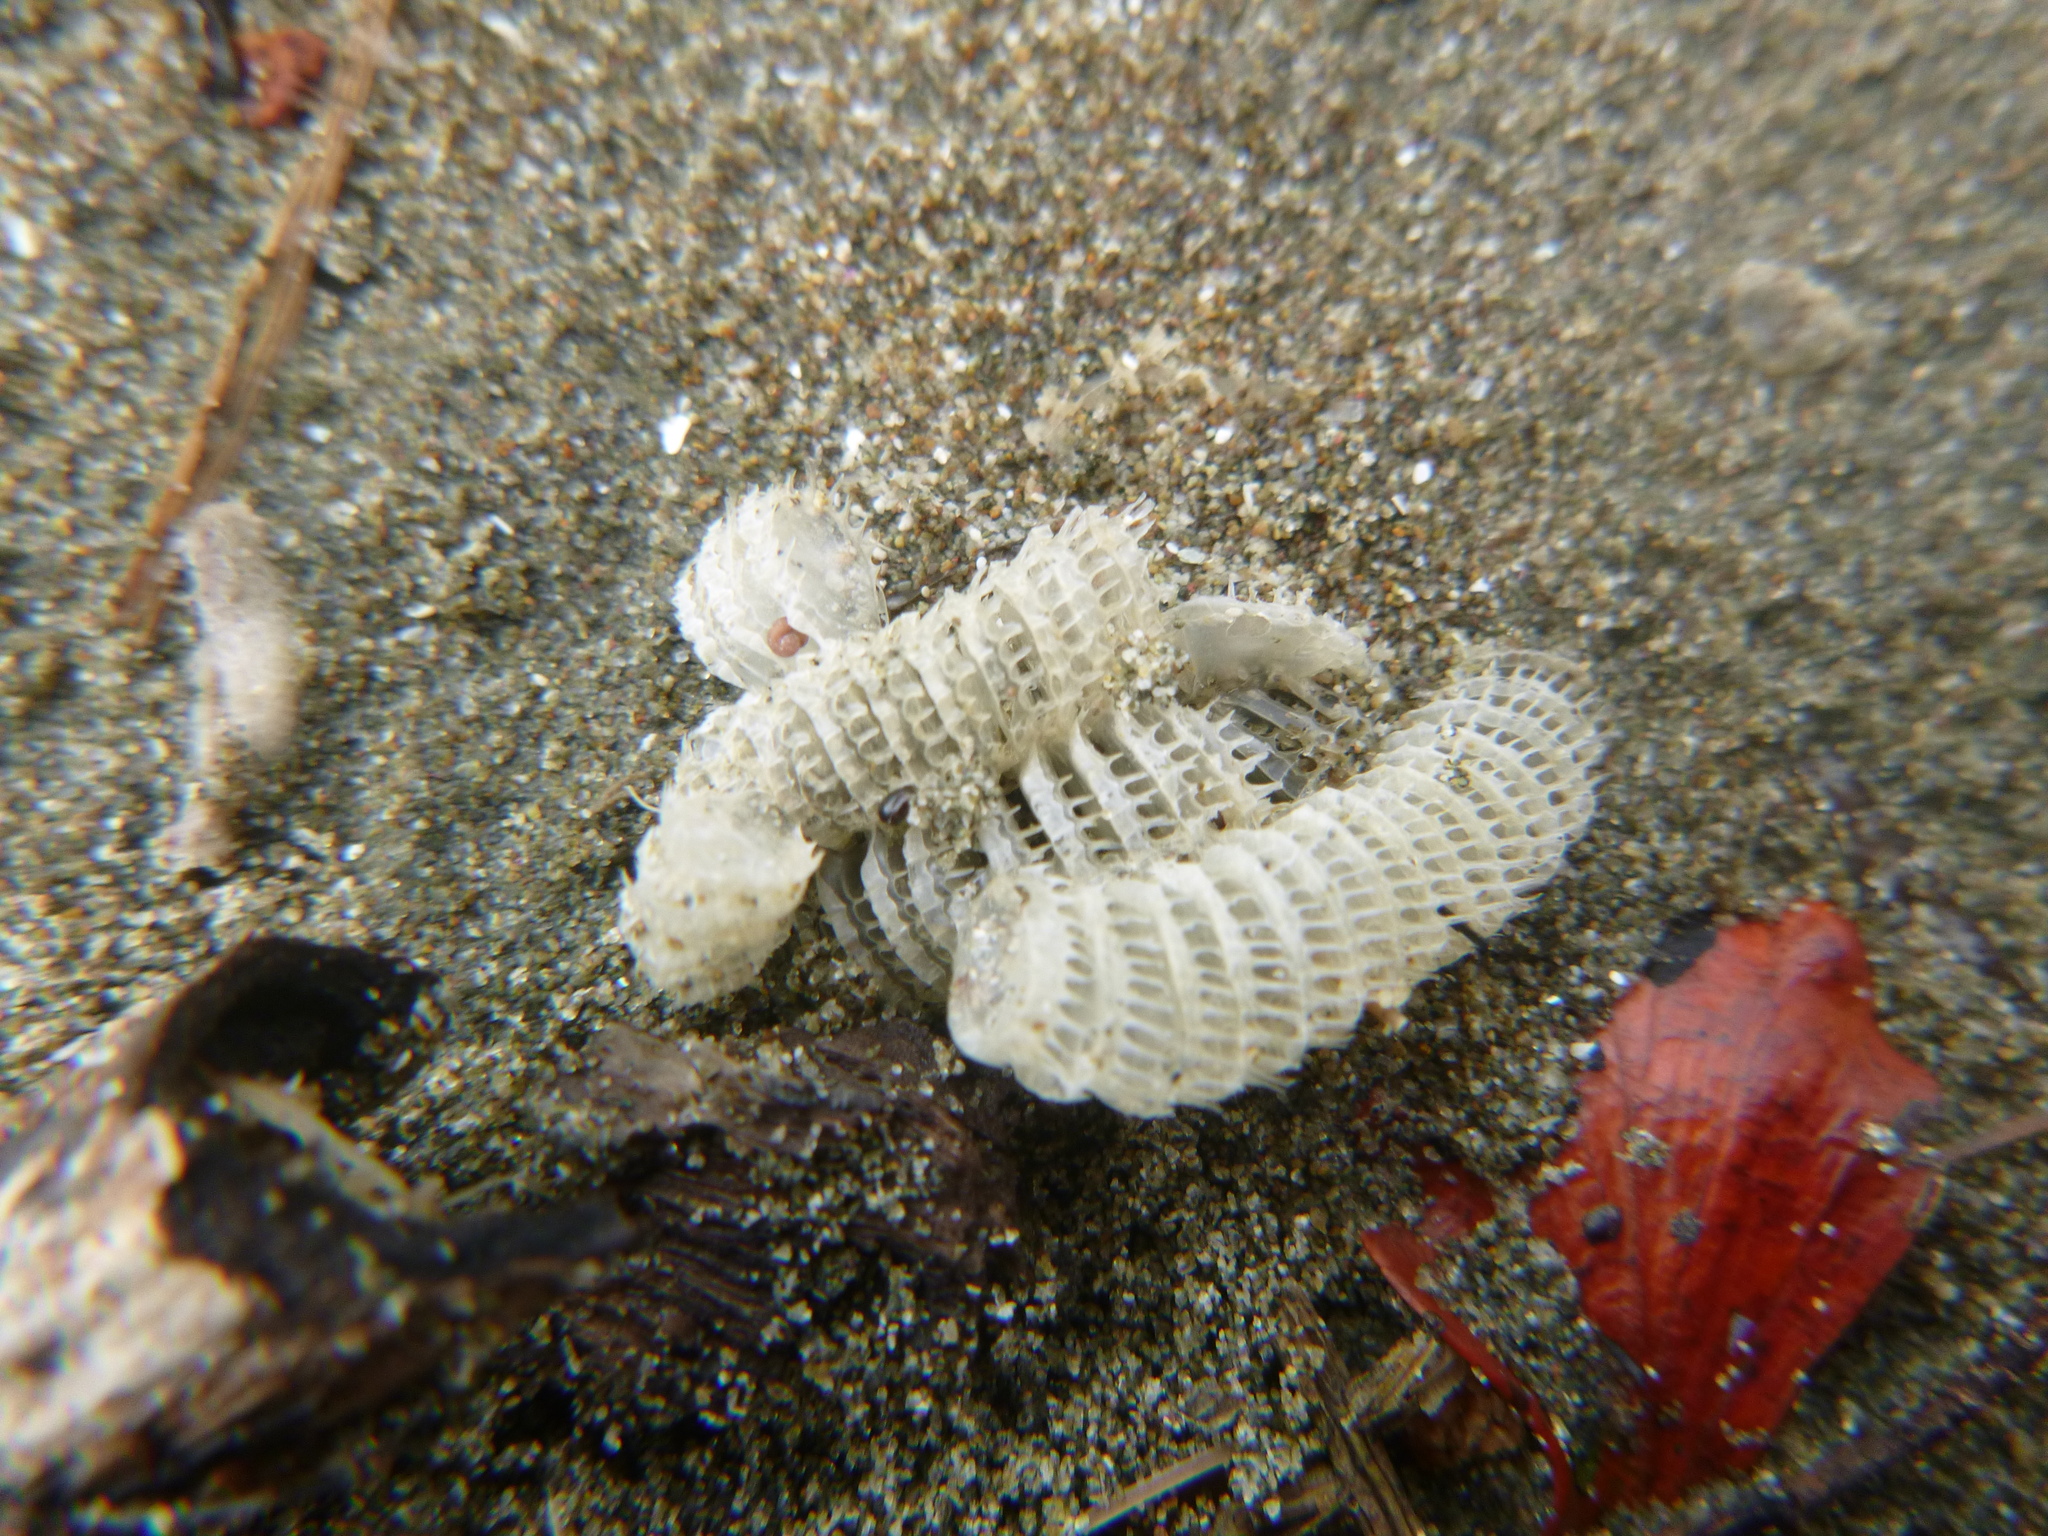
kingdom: Animalia
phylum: Mollusca
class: Gastropoda
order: Neogastropoda
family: Muricidae
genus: Poirieria
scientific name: Poirieria zelandica
